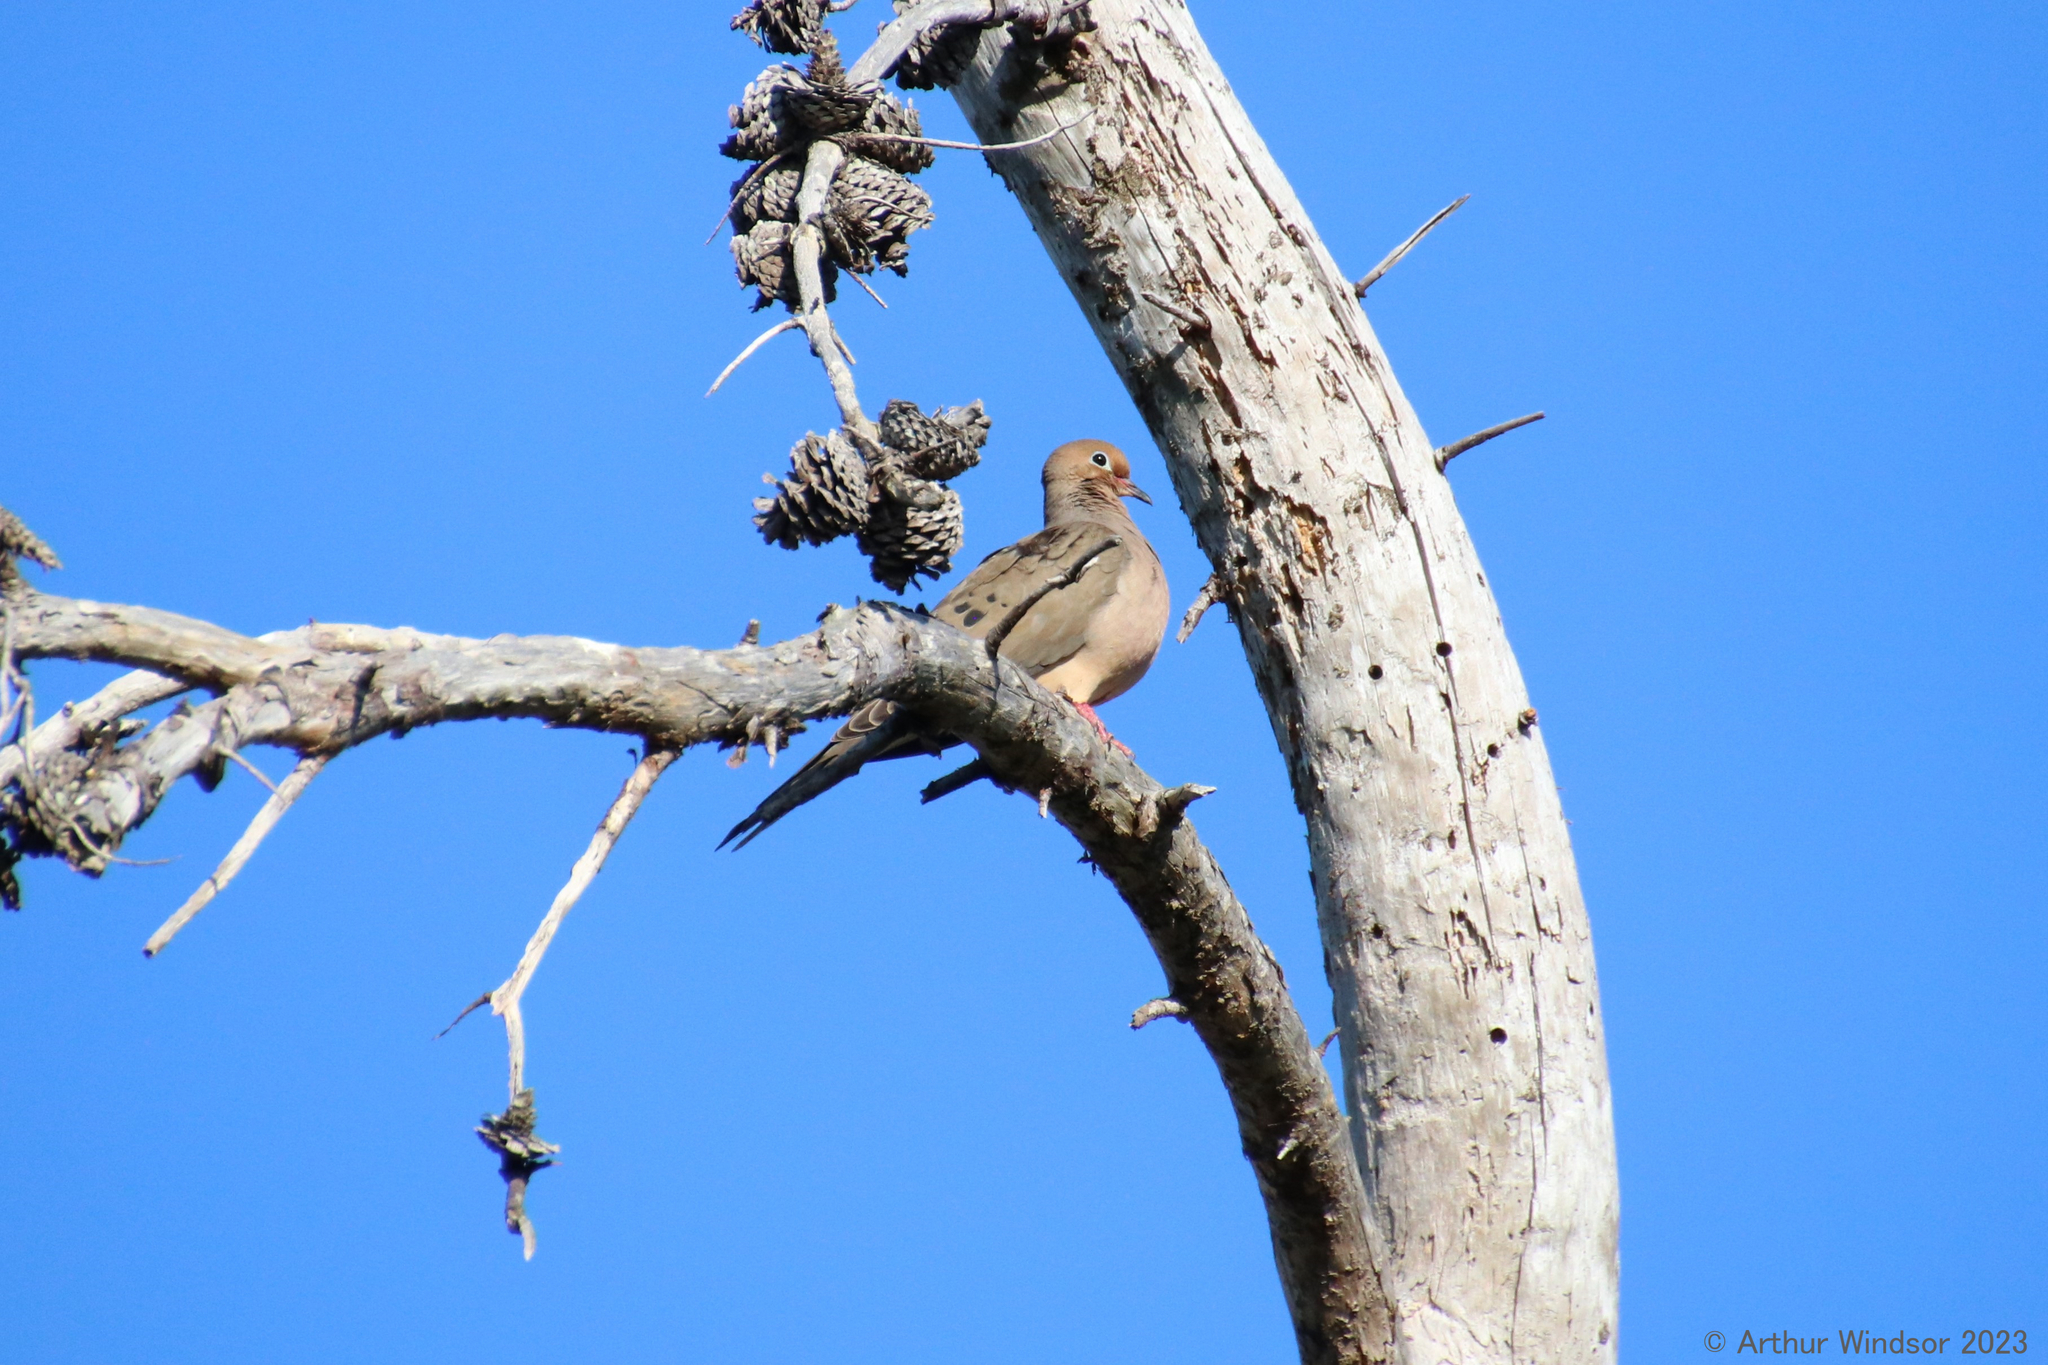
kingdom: Animalia
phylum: Chordata
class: Aves
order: Columbiformes
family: Columbidae
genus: Zenaida
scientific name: Zenaida macroura
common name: Mourning dove
